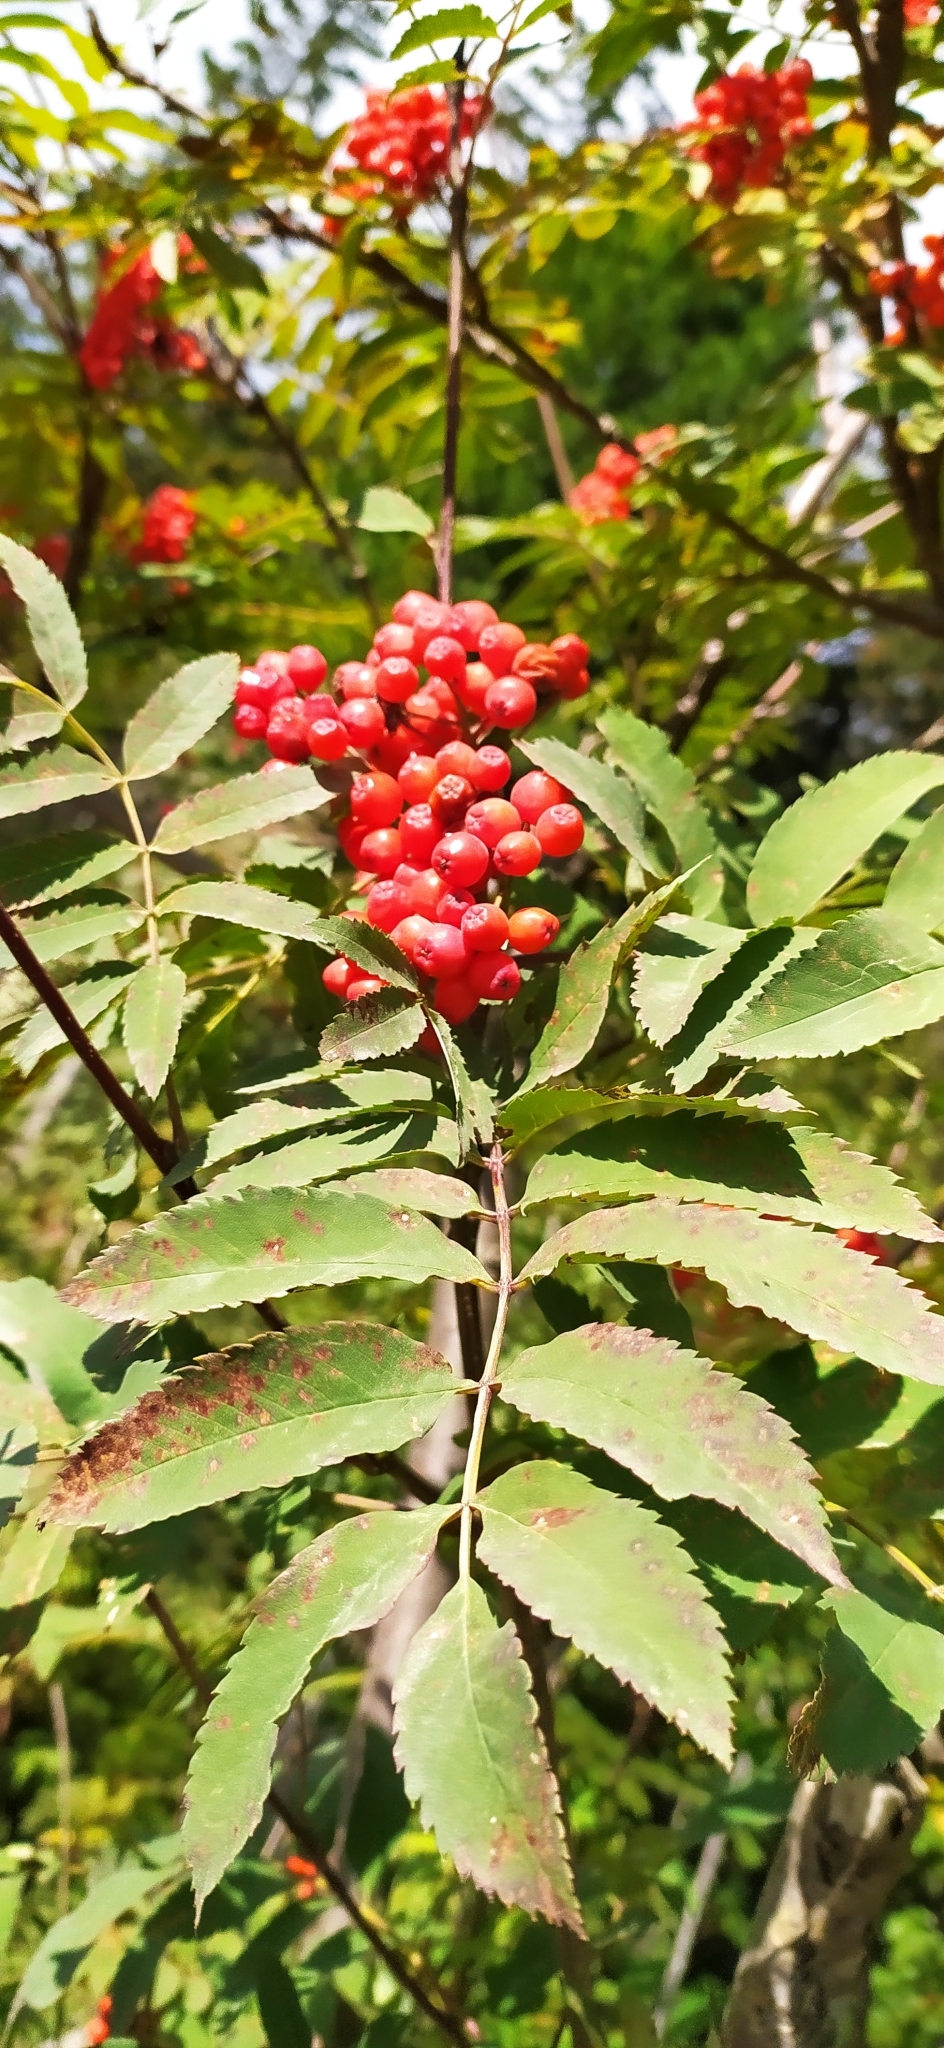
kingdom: Plantae
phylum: Tracheophyta
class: Magnoliopsida
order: Rosales
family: Rosaceae
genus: Sorbus
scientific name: Sorbus aucuparia
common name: Rowan
